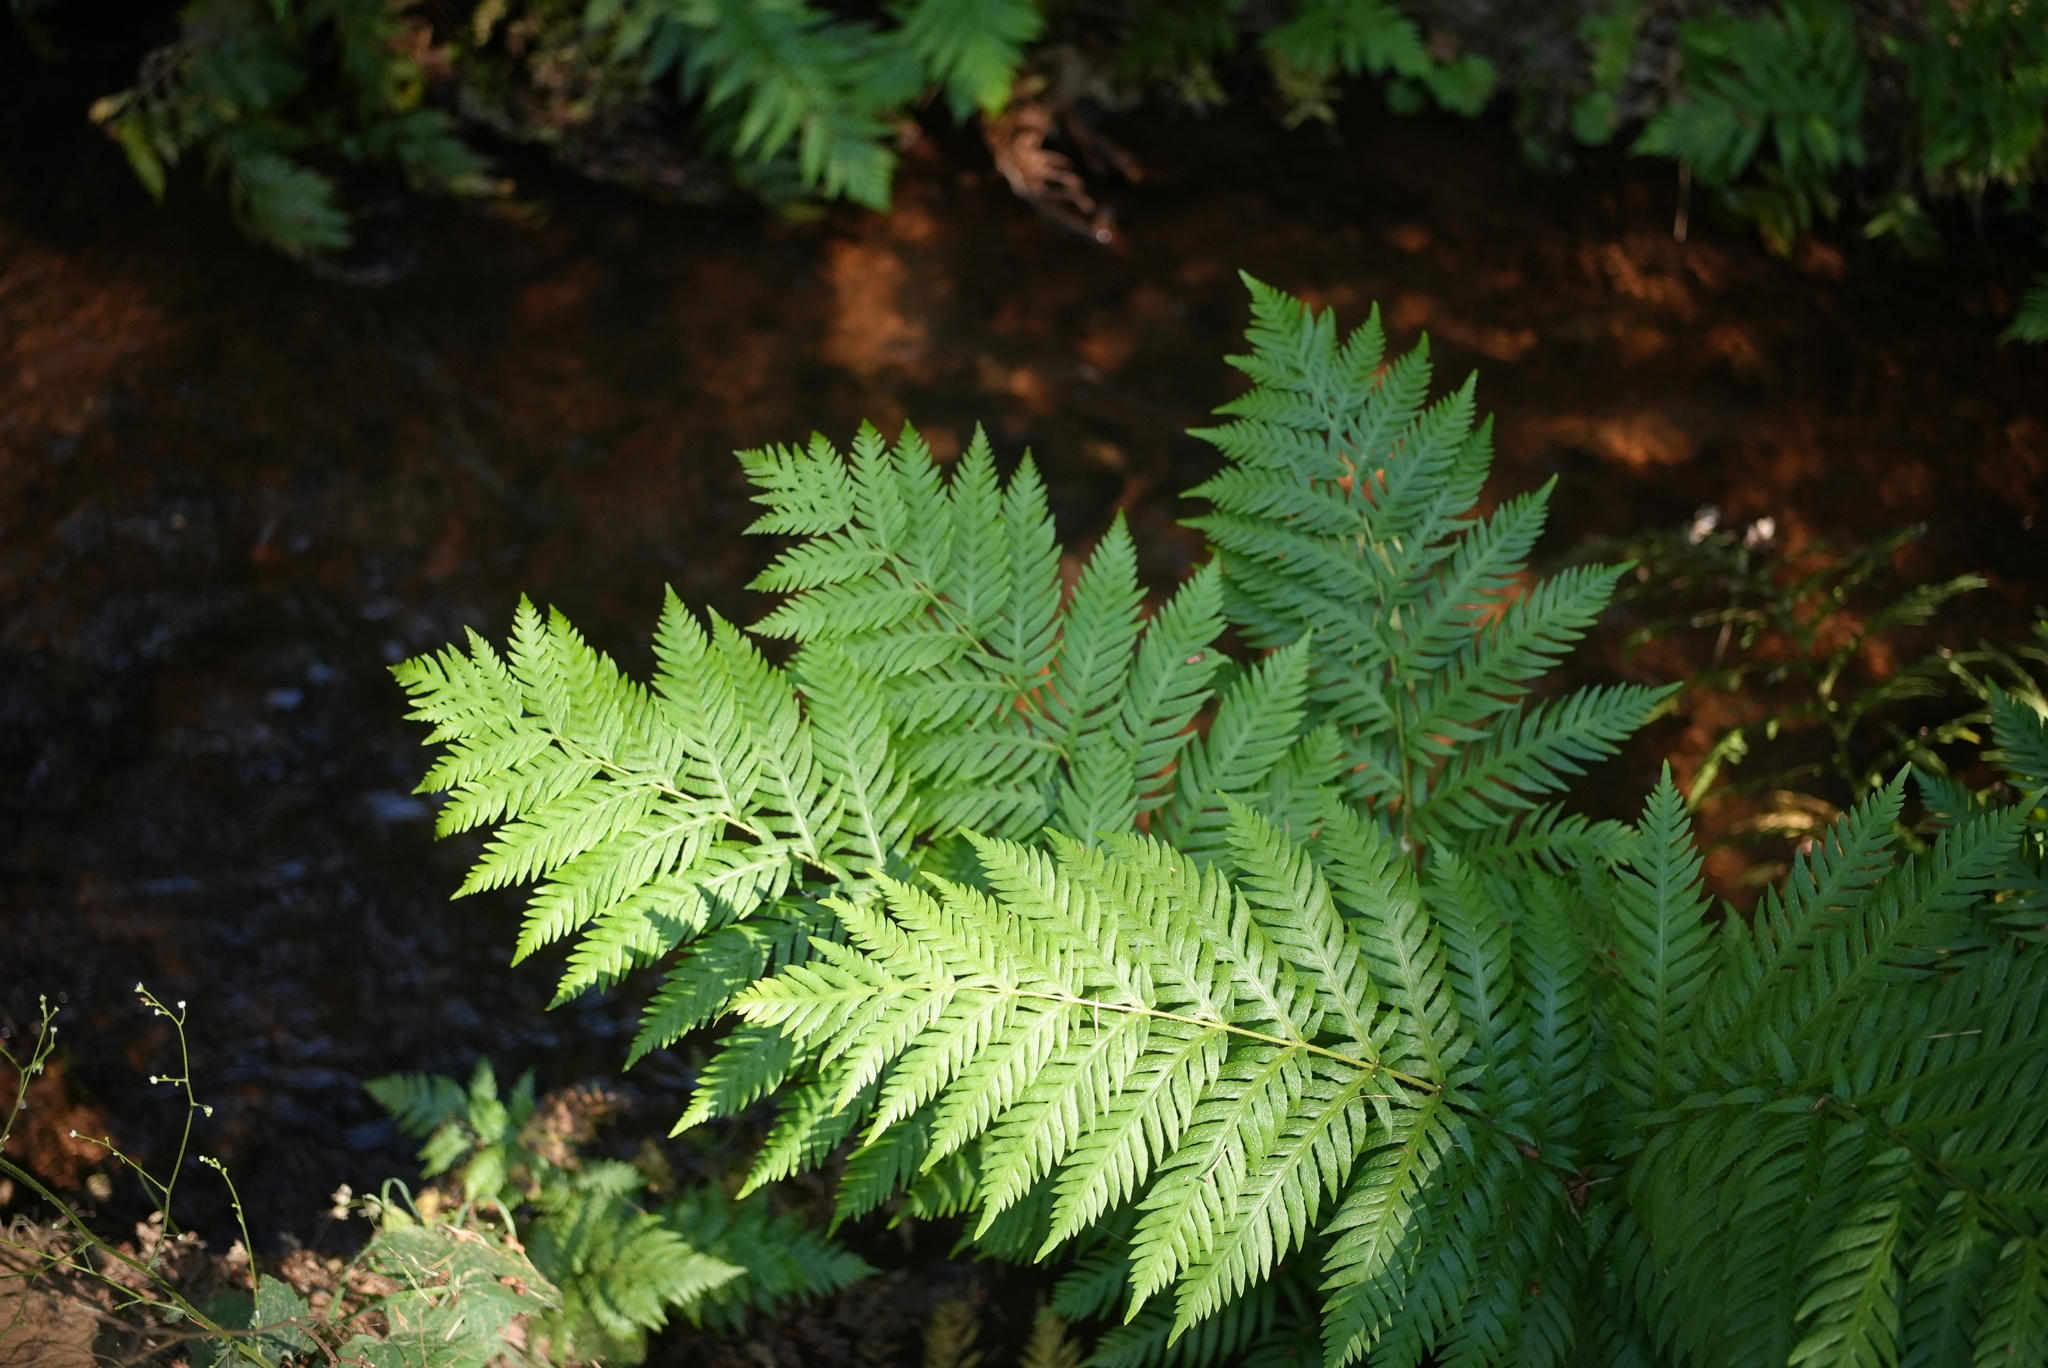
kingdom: Plantae
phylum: Tracheophyta
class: Polypodiopsida
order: Polypodiales
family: Blechnaceae
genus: Woodwardia
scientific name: Woodwardia fimbriata
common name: Giant chain fern
